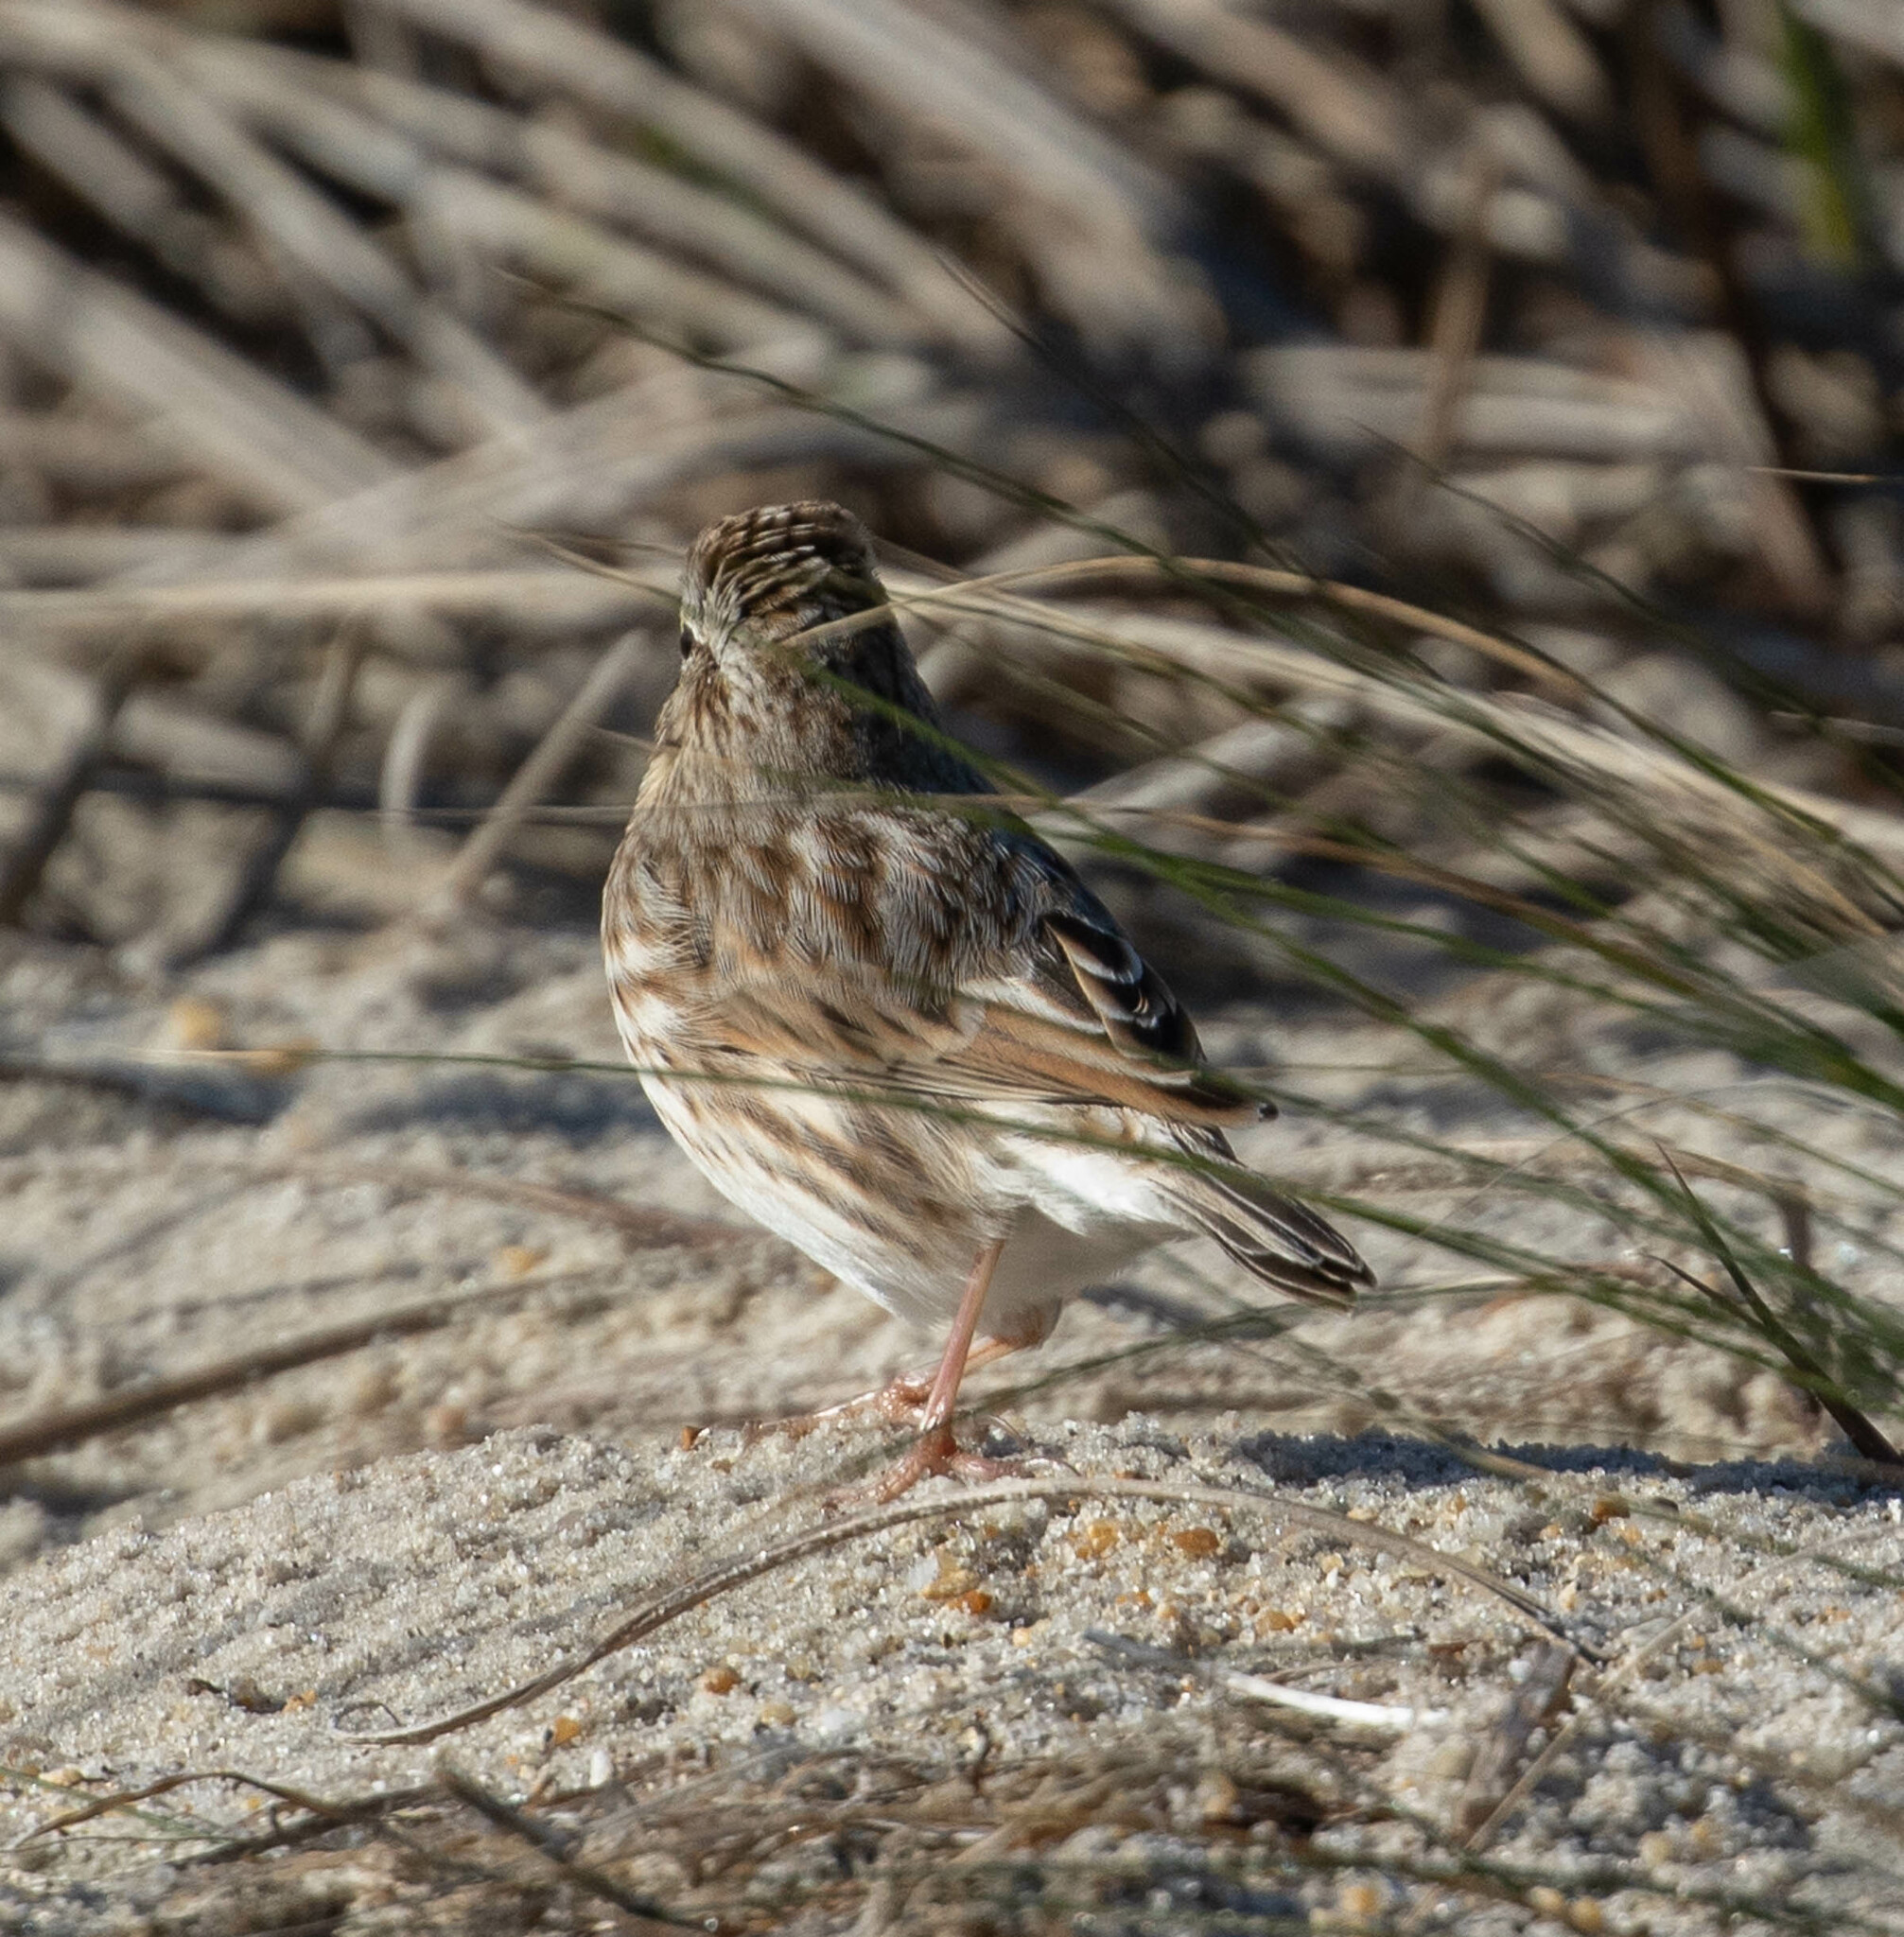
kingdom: Animalia
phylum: Chordata
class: Aves
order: Passeriformes
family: Passerellidae
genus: Passerculus
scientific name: Passerculus sandwichensis
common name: Savannah sparrow
